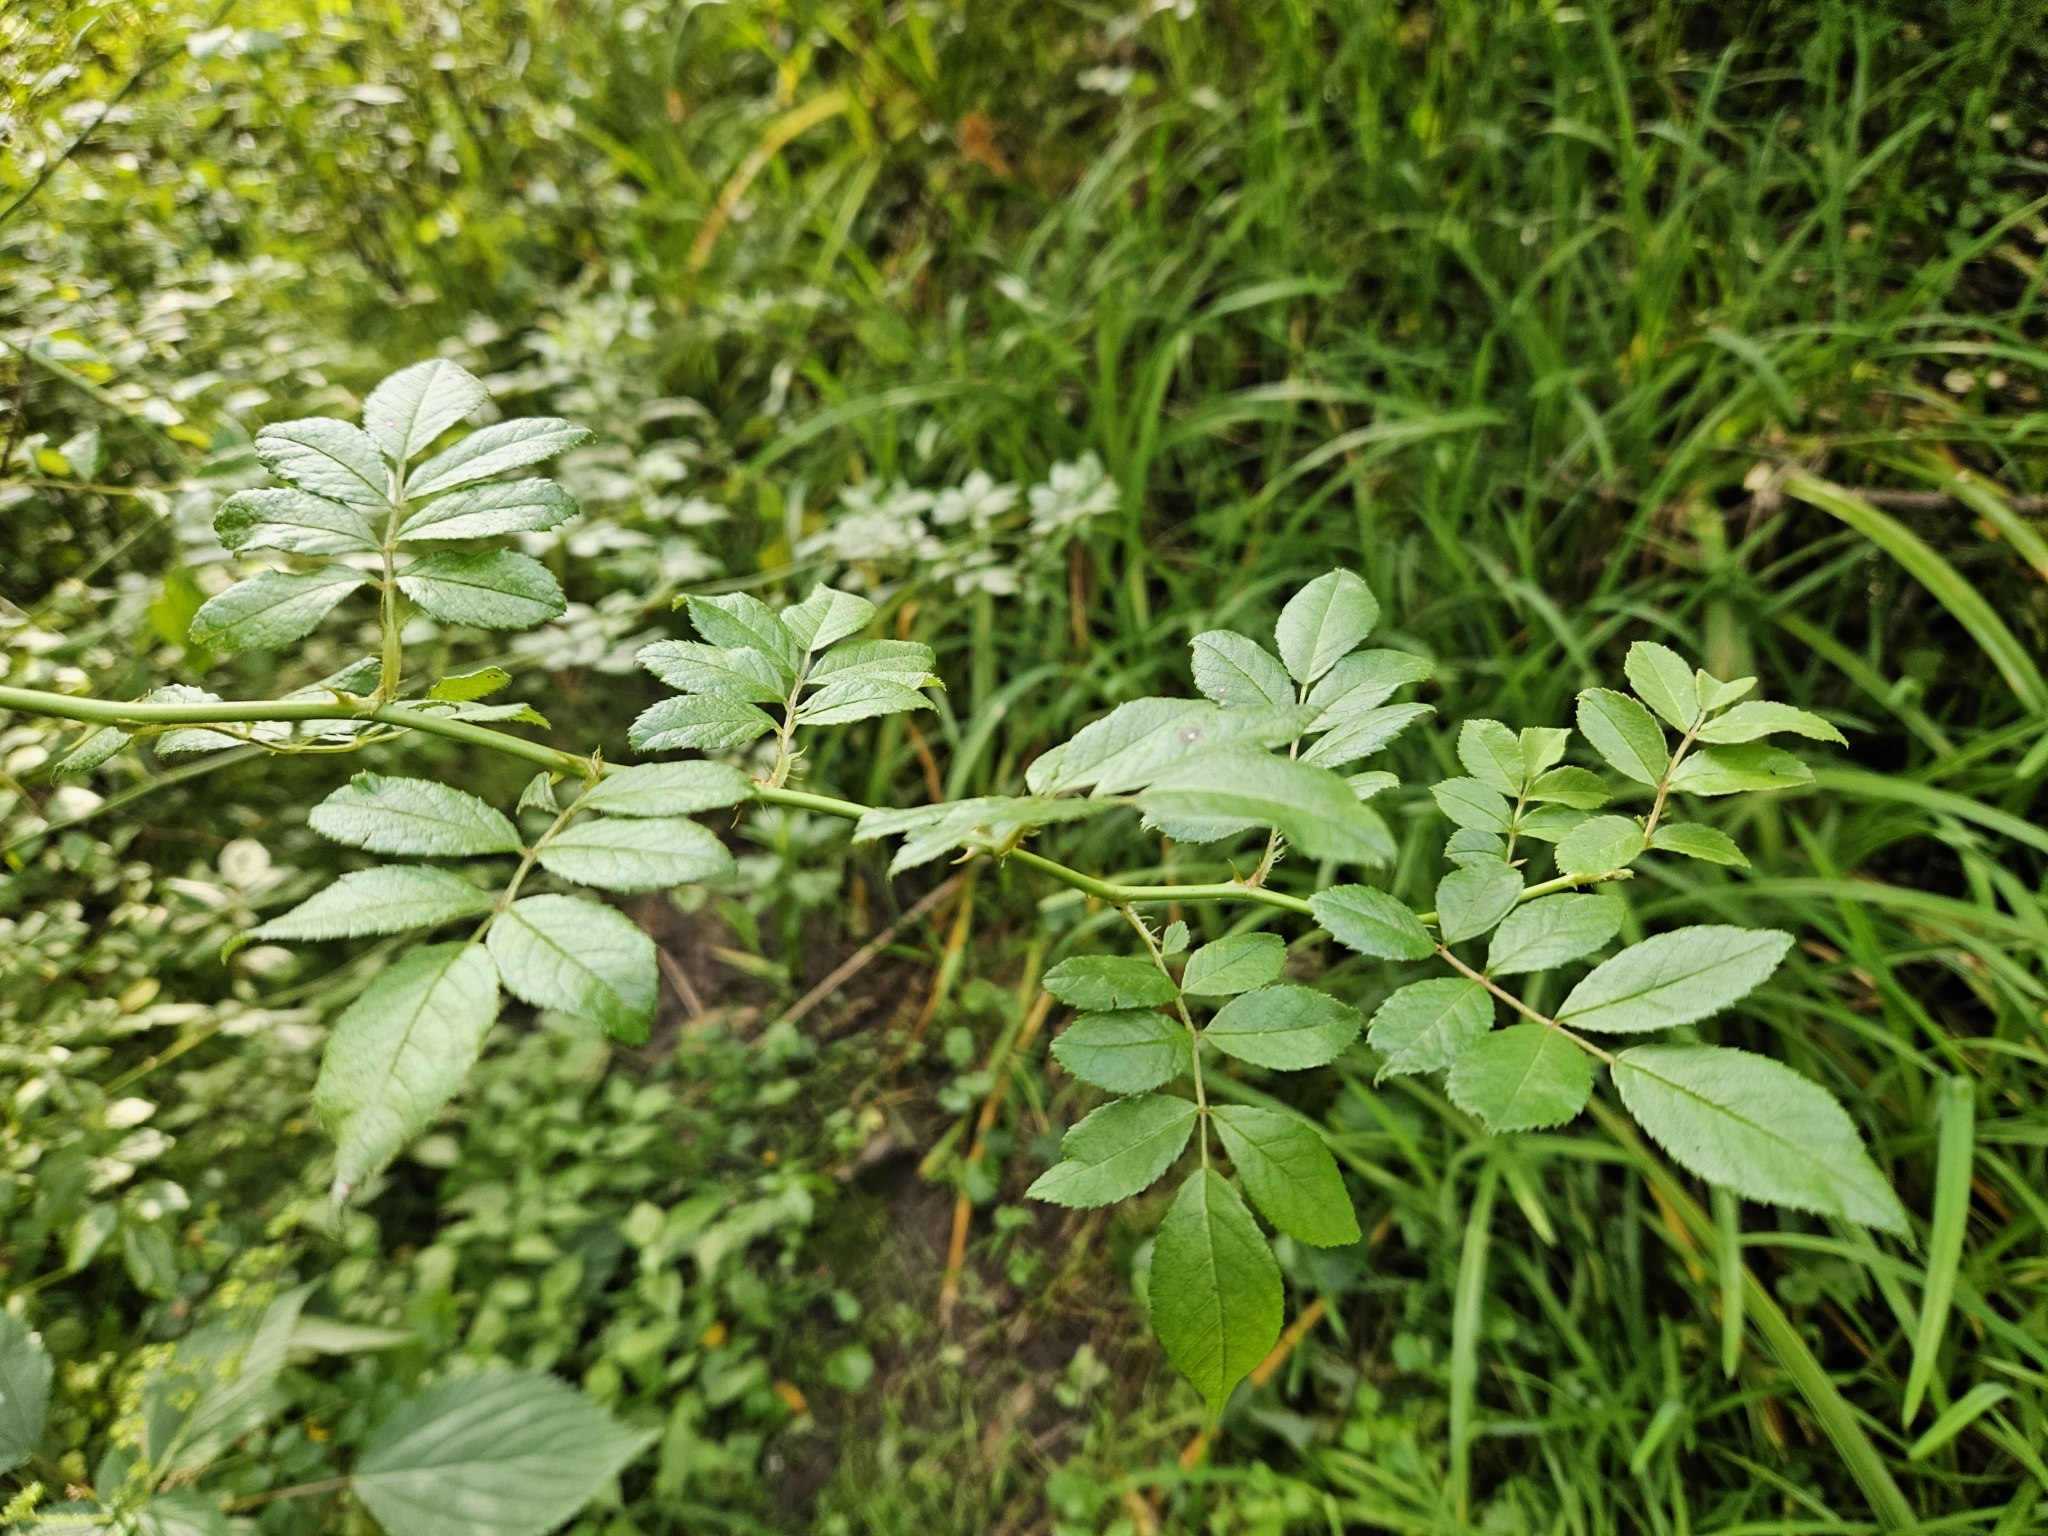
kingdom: Plantae
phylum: Tracheophyta
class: Magnoliopsida
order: Rosales
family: Rosaceae
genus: Rosa
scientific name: Rosa multiflora
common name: Multiflora rose
